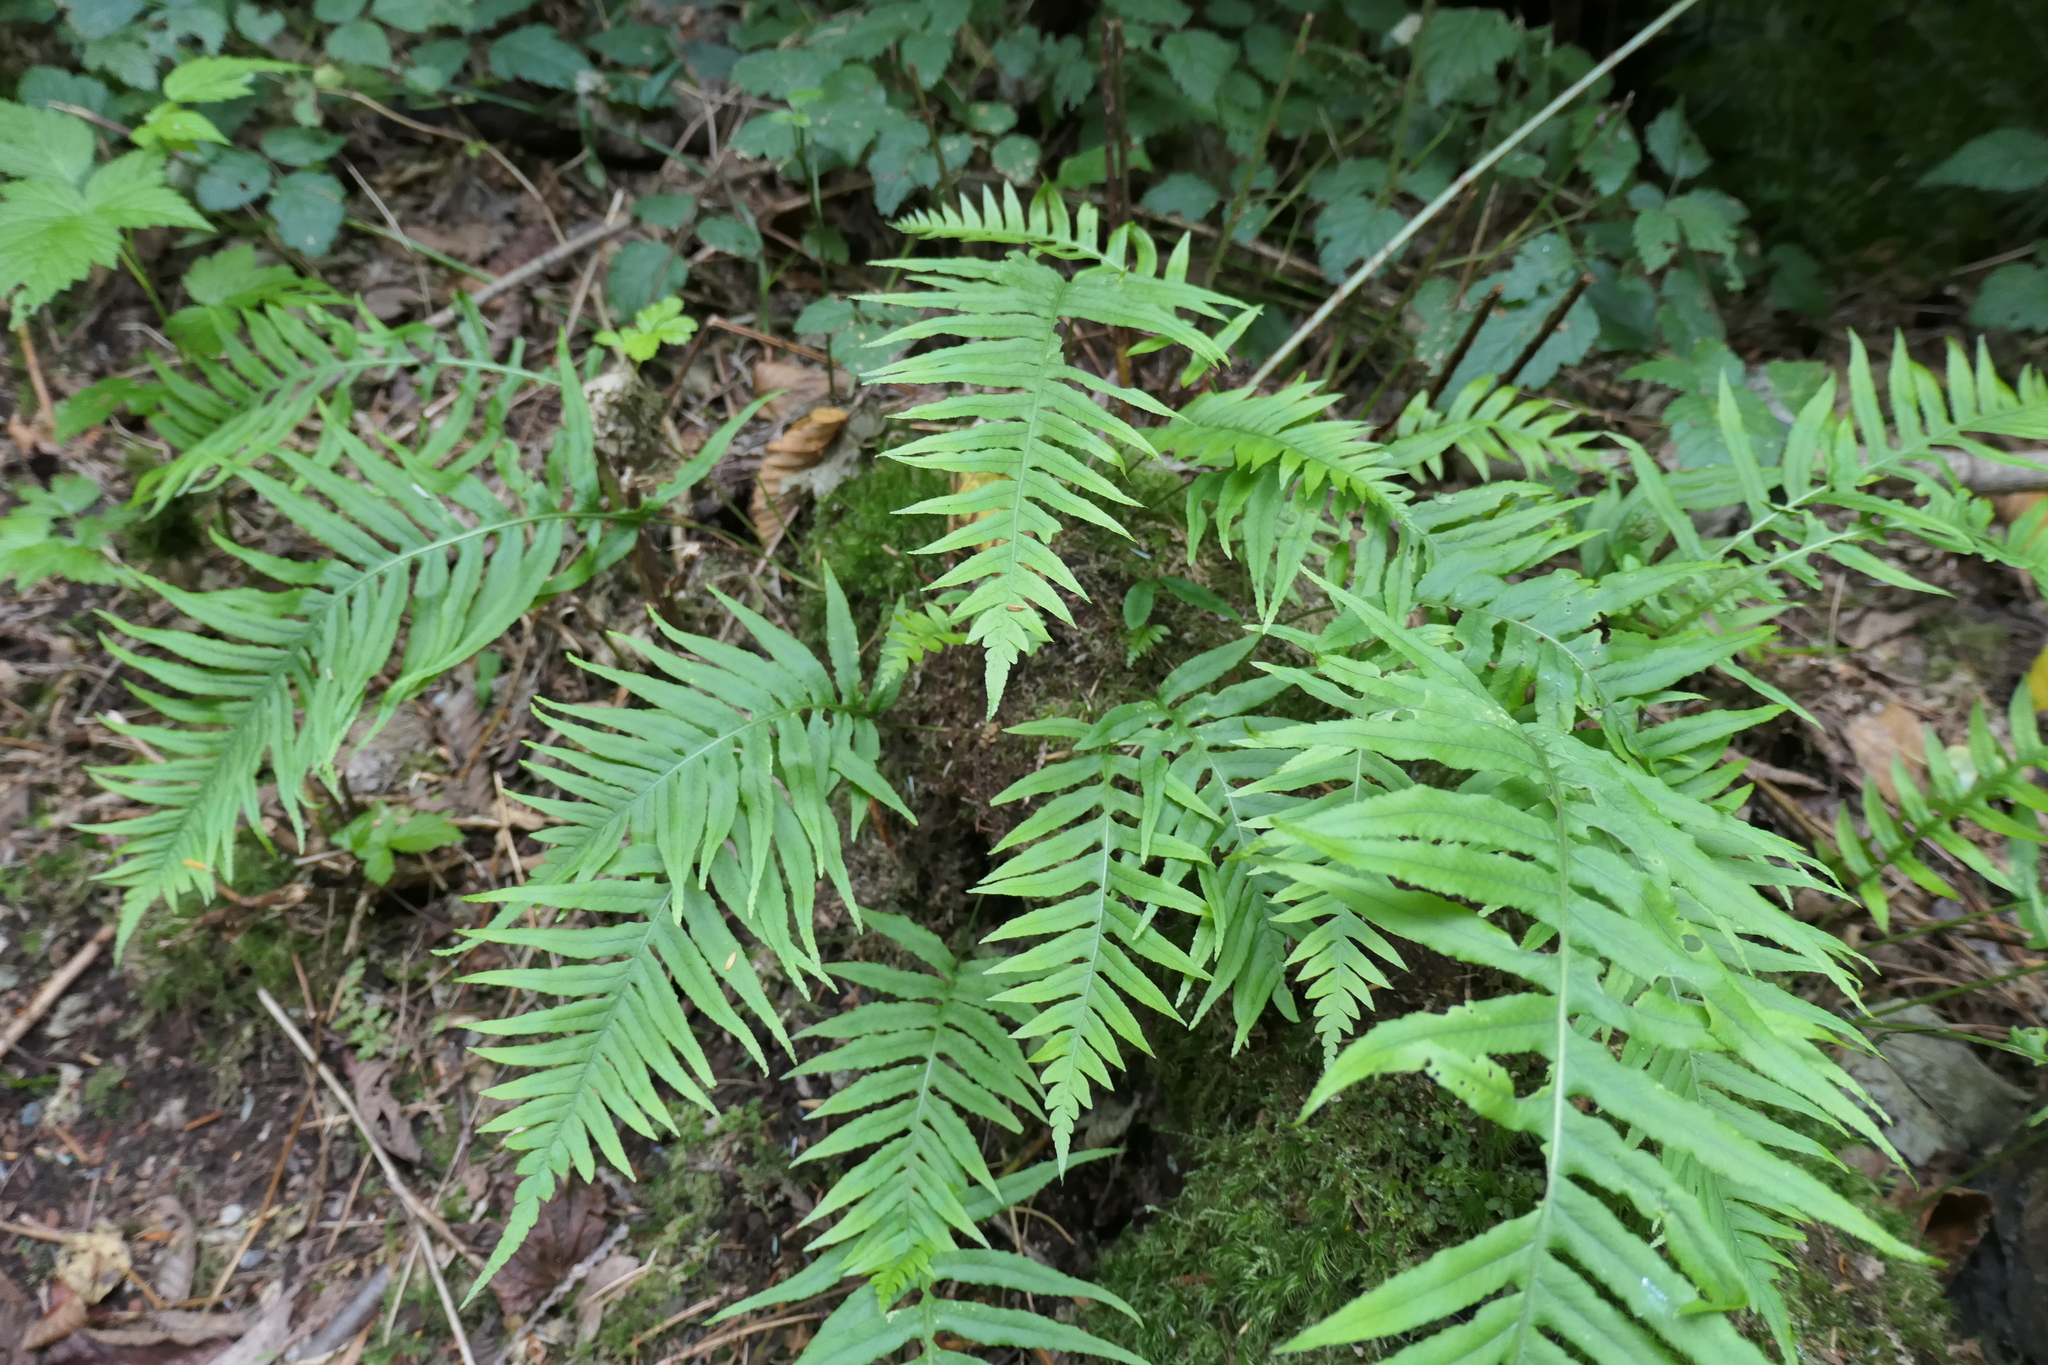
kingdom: Plantae
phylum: Tracheophyta
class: Polypodiopsida
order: Polypodiales
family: Polypodiaceae
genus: Polypodium
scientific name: Polypodium glycyrrhiza
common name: Licorice fern
